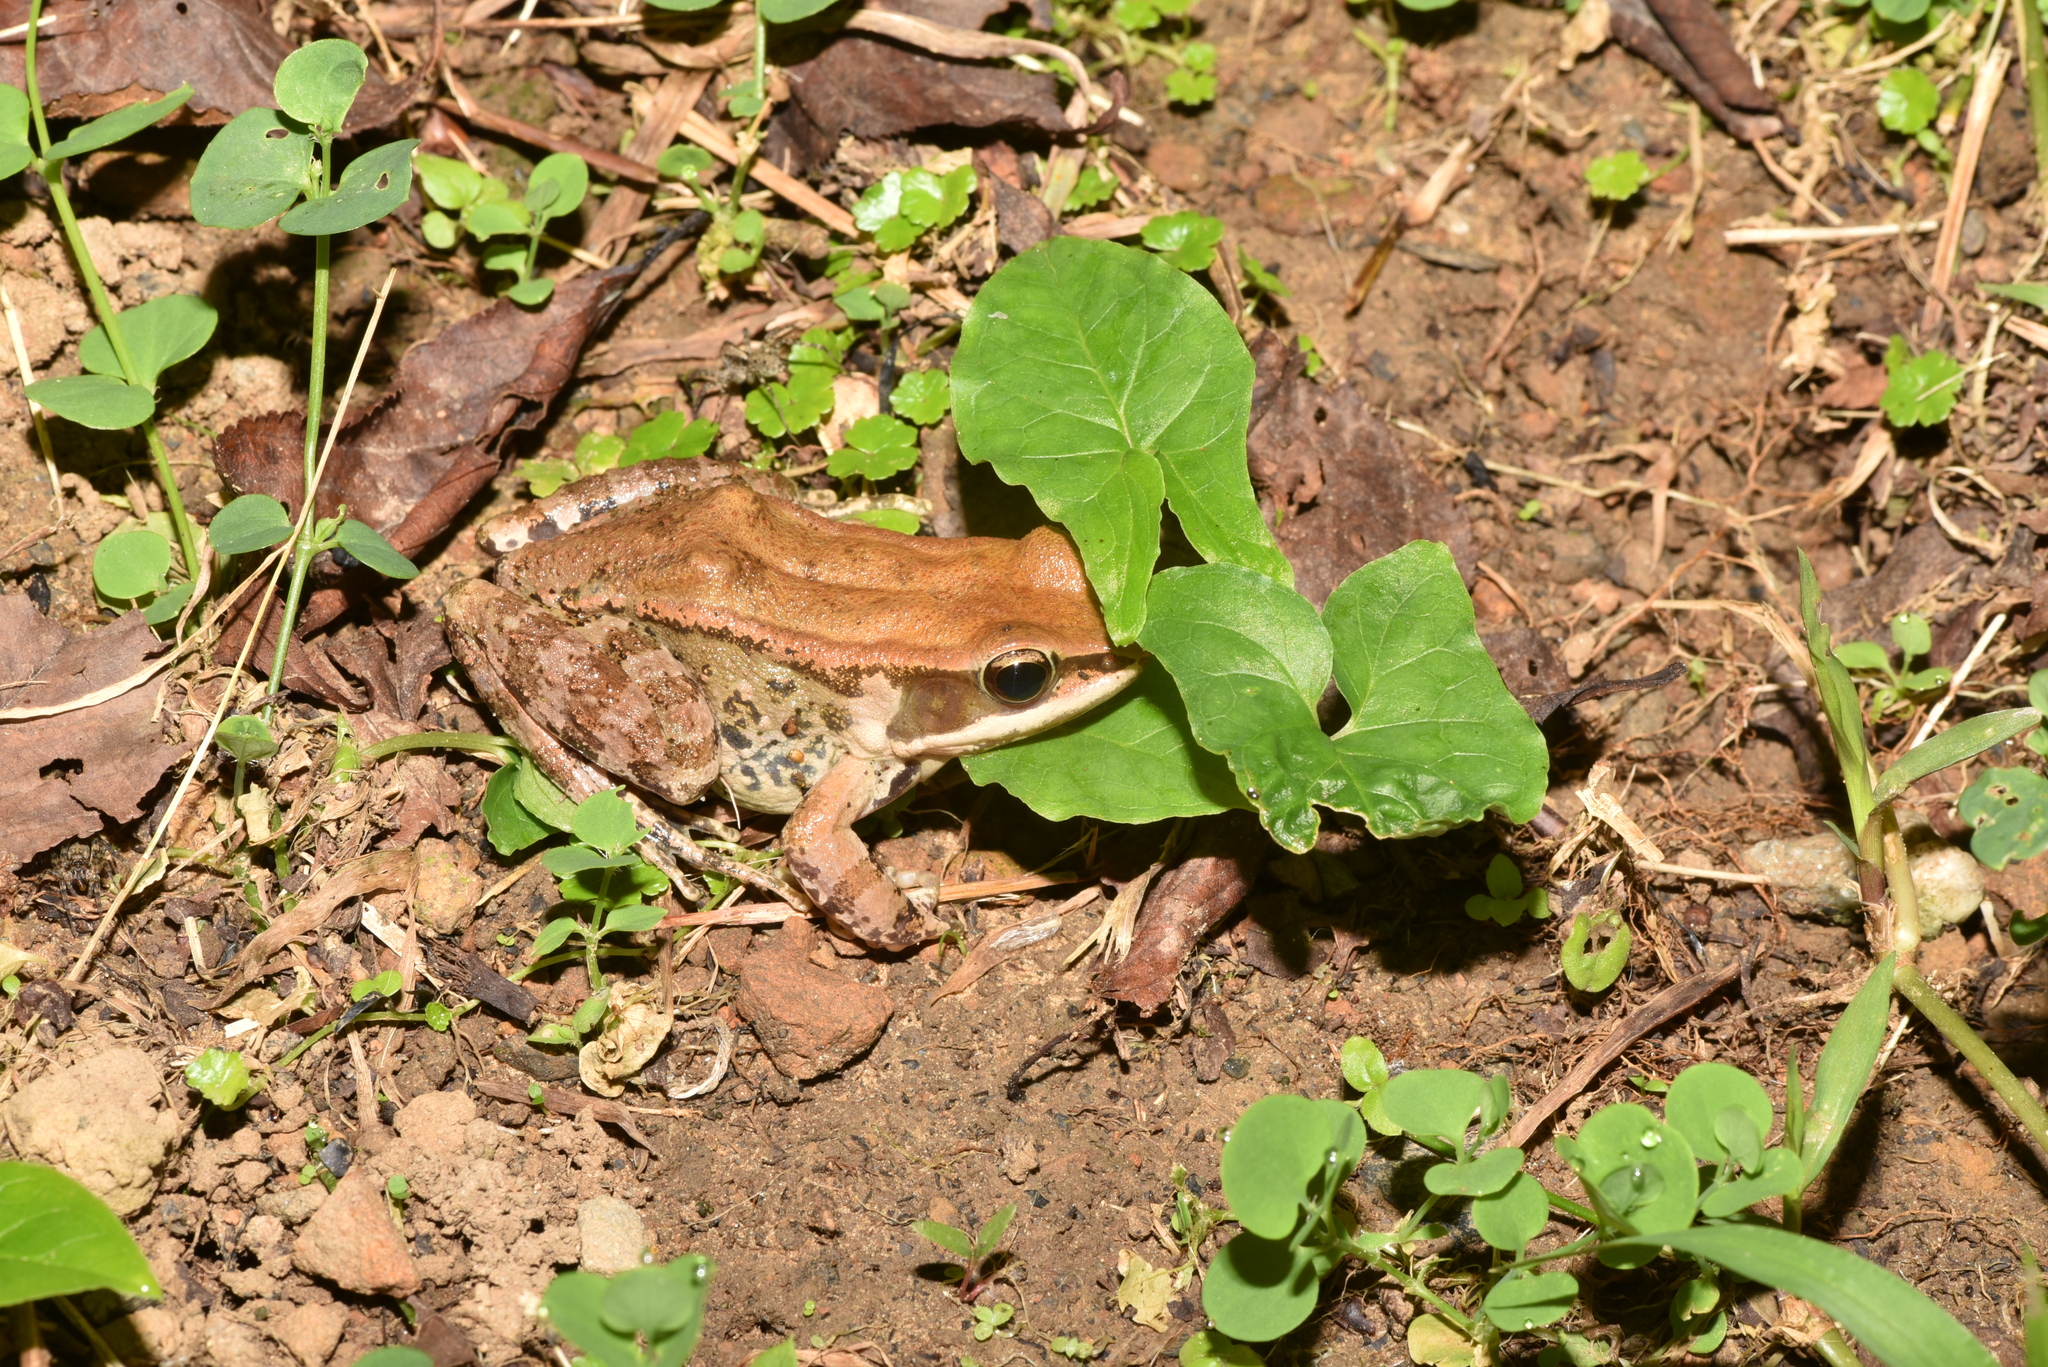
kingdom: Animalia
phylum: Chordata
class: Amphibia
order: Anura
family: Ranidae
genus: Hylarana
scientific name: Hylarana latouchii
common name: Broad-folded frog
